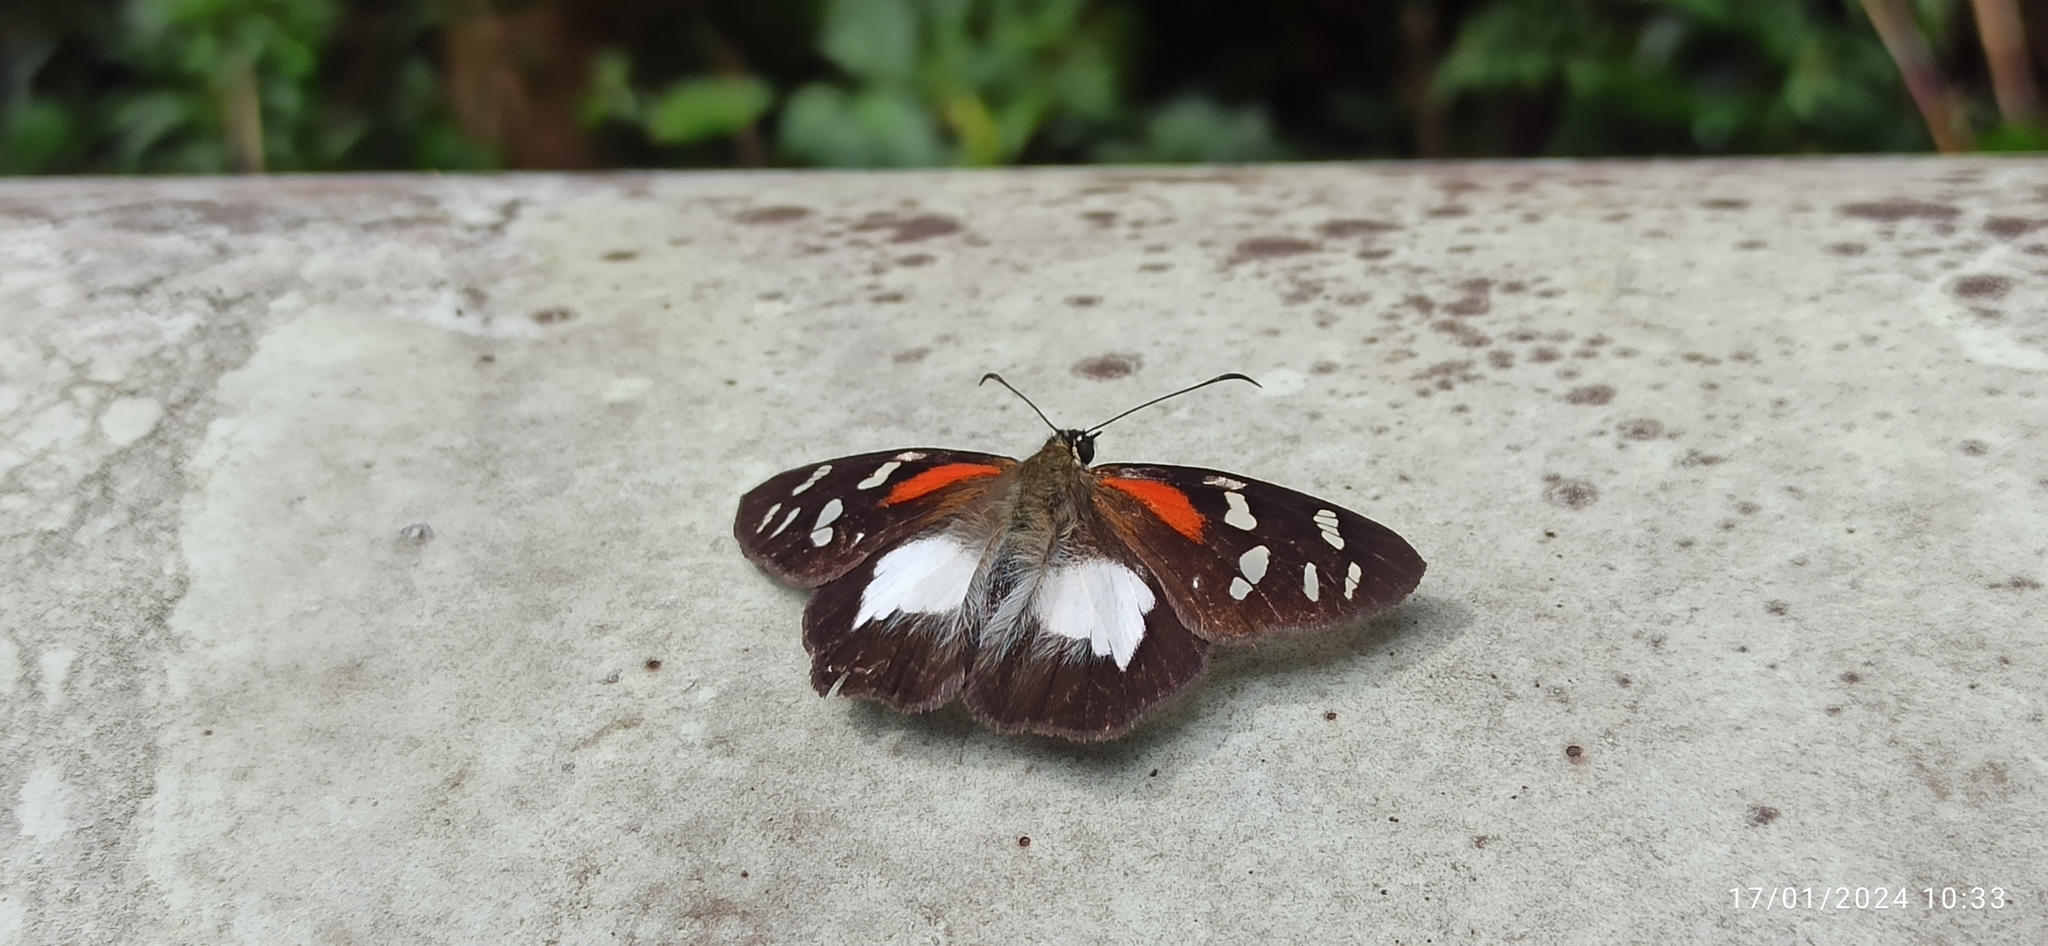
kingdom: Animalia
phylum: Arthropoda
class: Insecta
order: Lepidoptera
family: Hesperiidae
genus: Entheus
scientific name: Entheus matho
